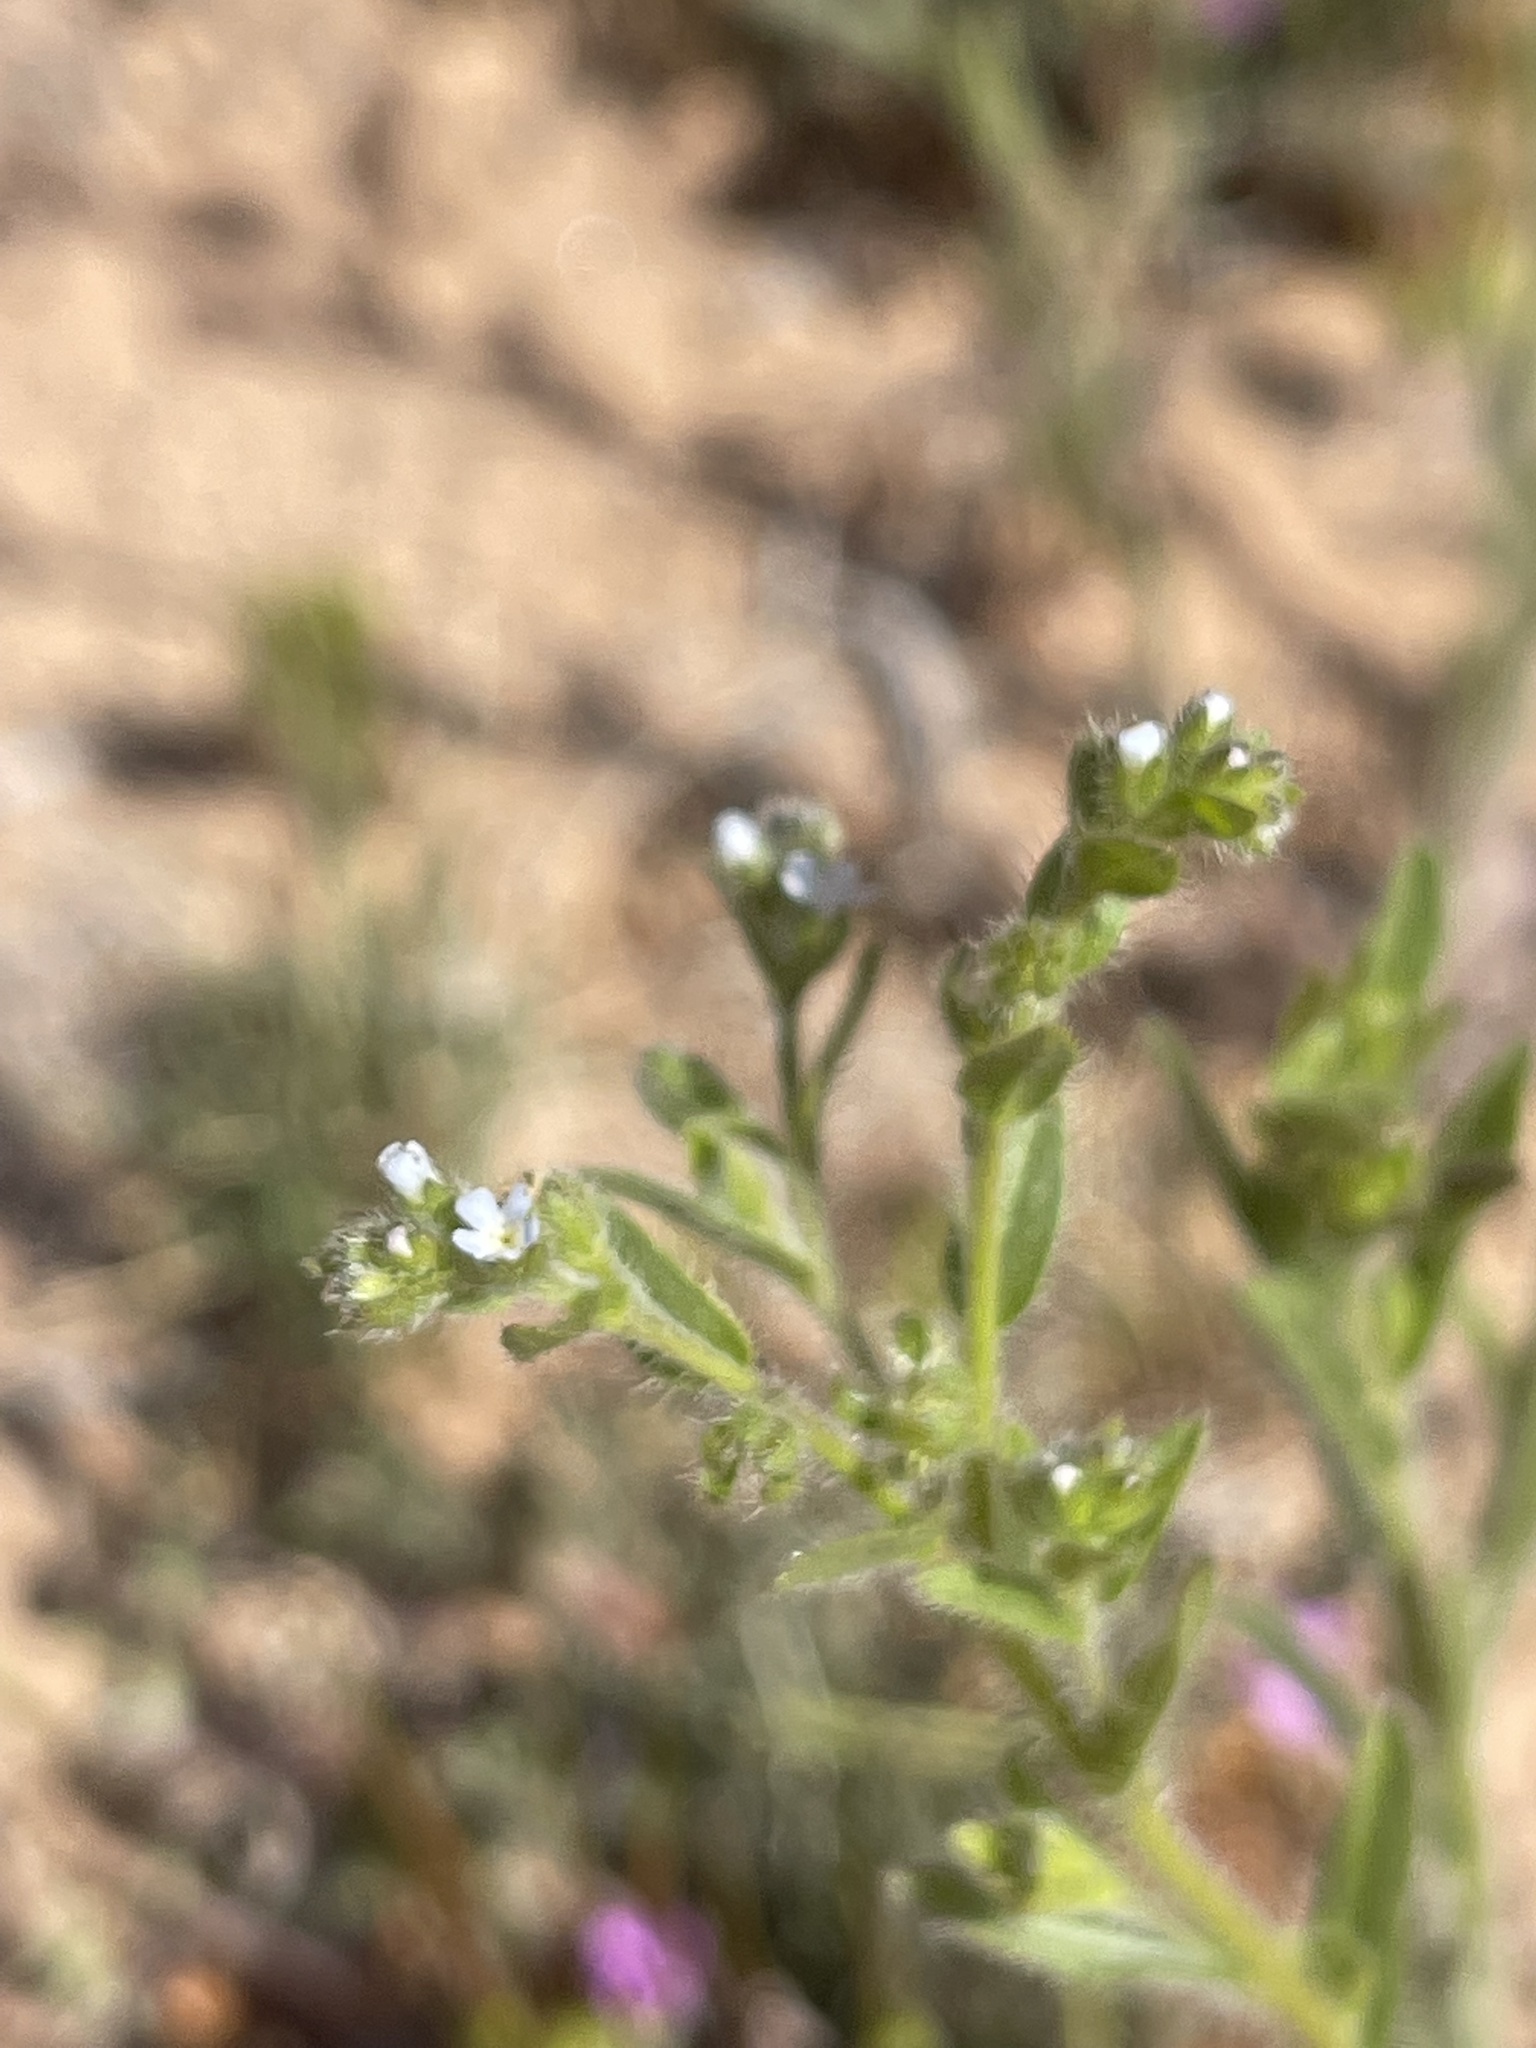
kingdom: Plantae
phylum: Tracheophyta
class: Magnoliopsida
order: Boraginales
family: Boraginaceae
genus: Lappula
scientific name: Lappula occidentalis
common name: Western stickseed
